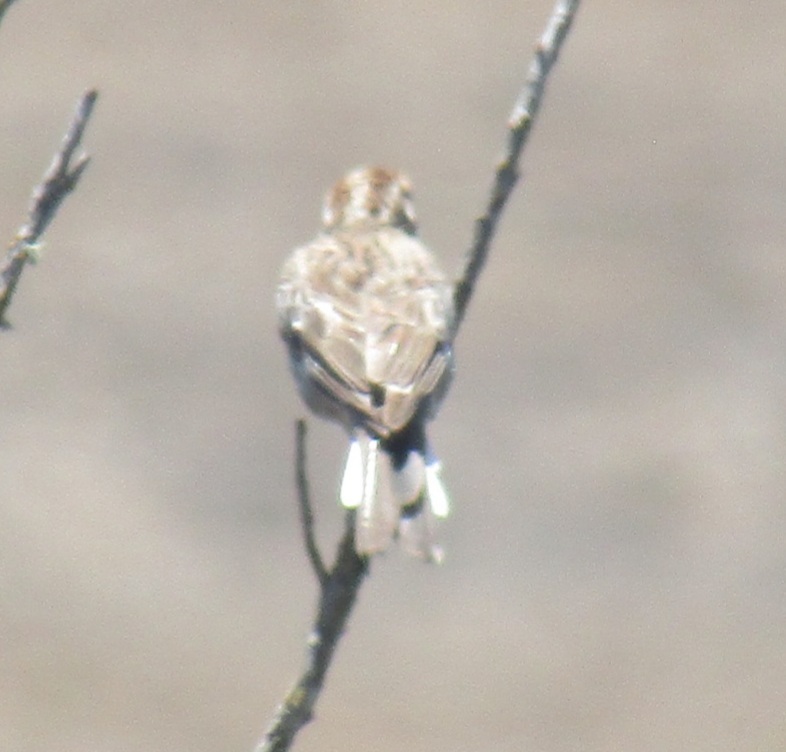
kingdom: Animalia
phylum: Chordata
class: Aves
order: Passeriformes
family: Passerellidae
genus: Chondestes
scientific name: Chondestes grammacus
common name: Lark sparrow
